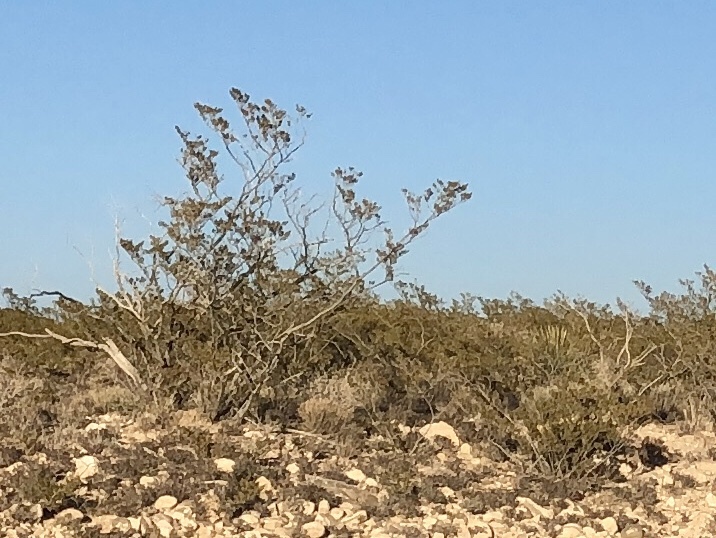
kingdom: Plantae
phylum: Tracheophyta
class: Magnoliopsida
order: Zygophyllales
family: Zygophyllaceae
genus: Larrea
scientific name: Larrea tridentata
